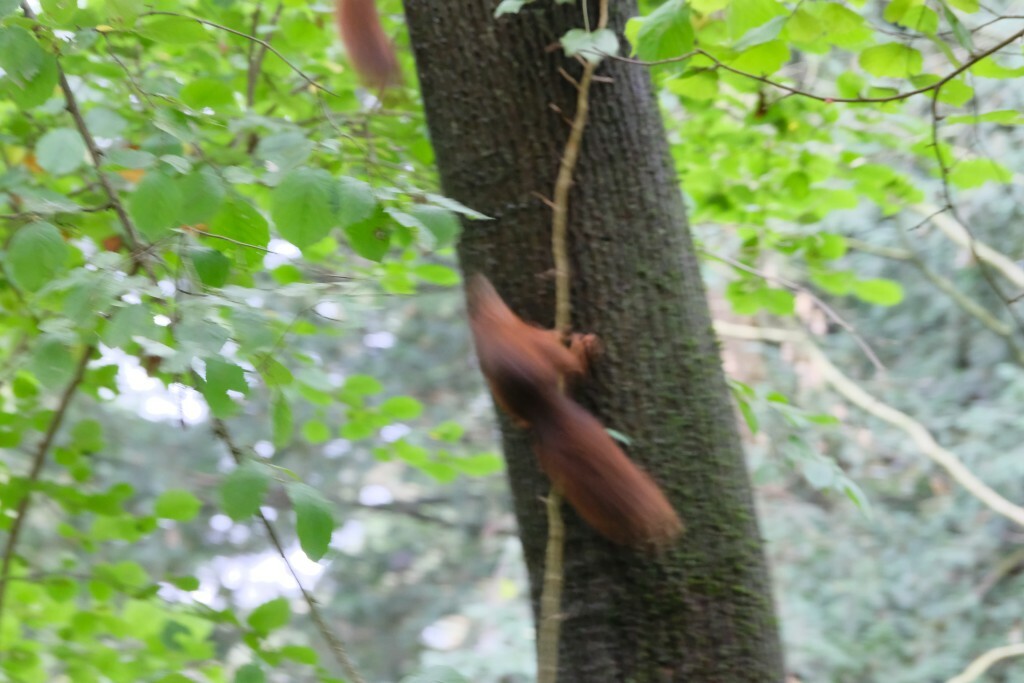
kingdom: Animalia
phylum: Chordata
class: Mammalia
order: Rodentia
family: Sciuridae
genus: Sciurus
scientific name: Sciurus vulgaris
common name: Eurasian red squirrel
